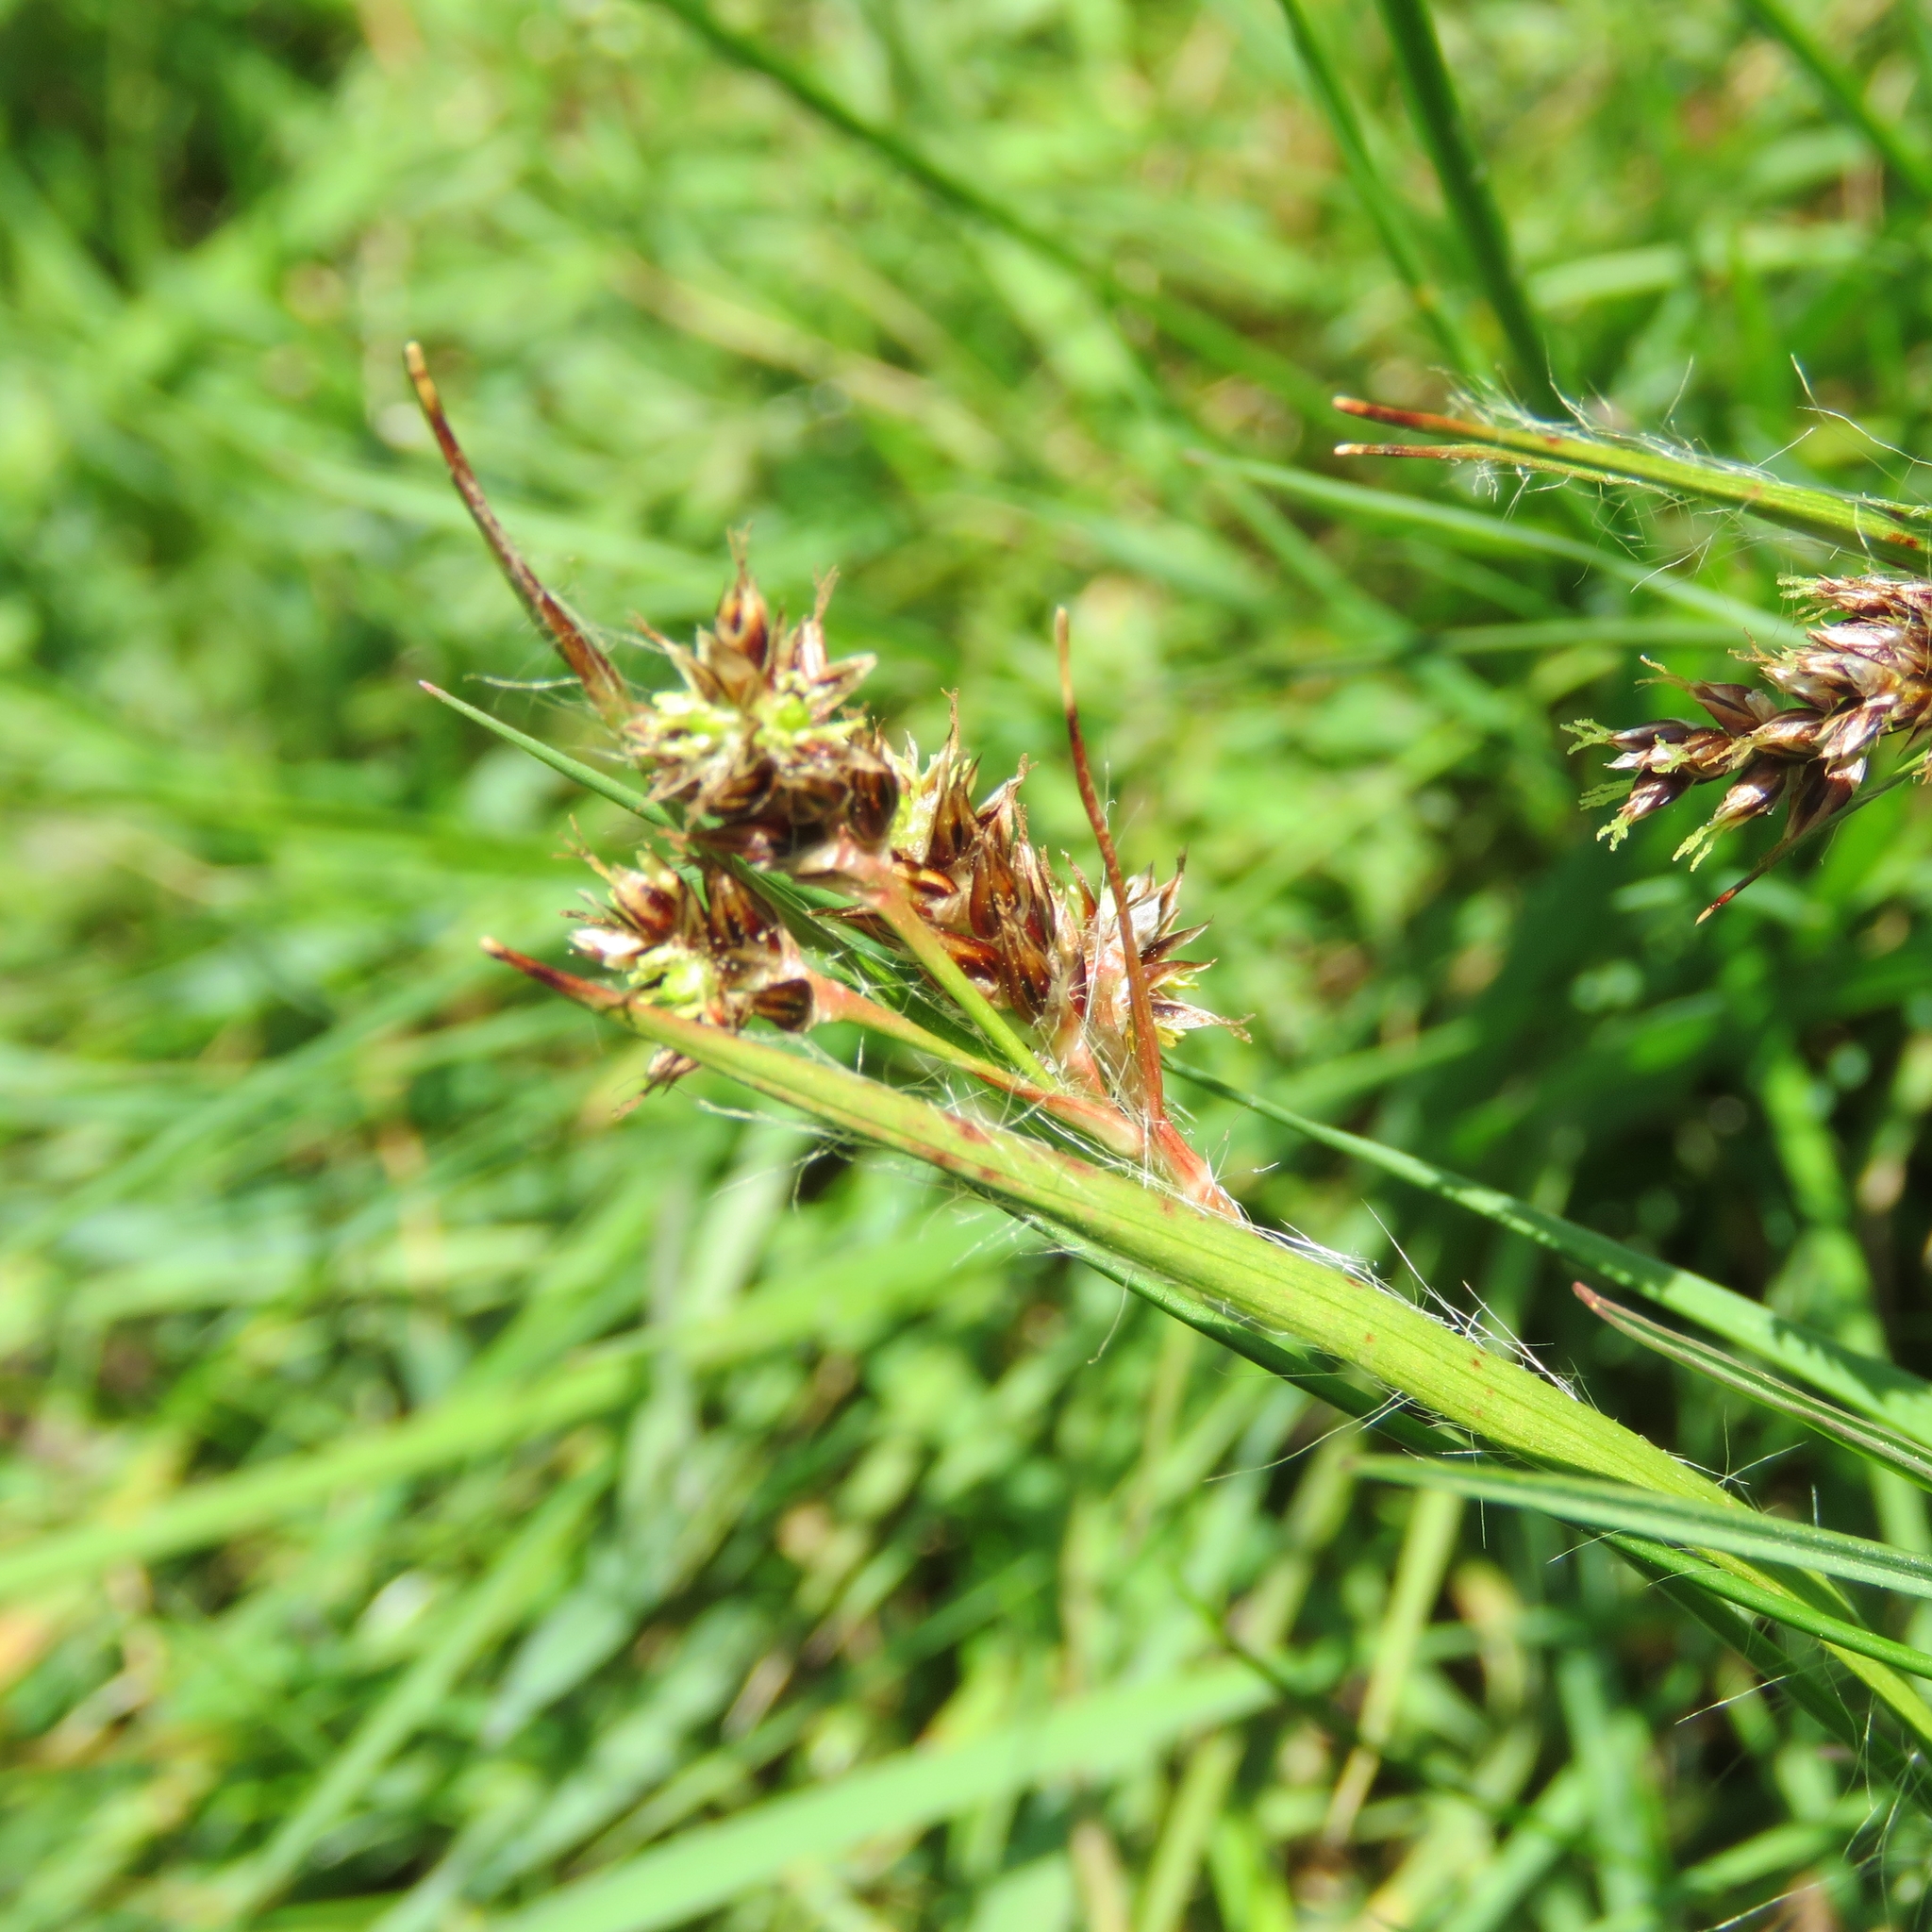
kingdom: Plantae
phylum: Tracheophyta
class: Liliopsida
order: Poales
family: Juncaceae
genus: Luzula
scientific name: Luzula campestris
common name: Field wood-rush
